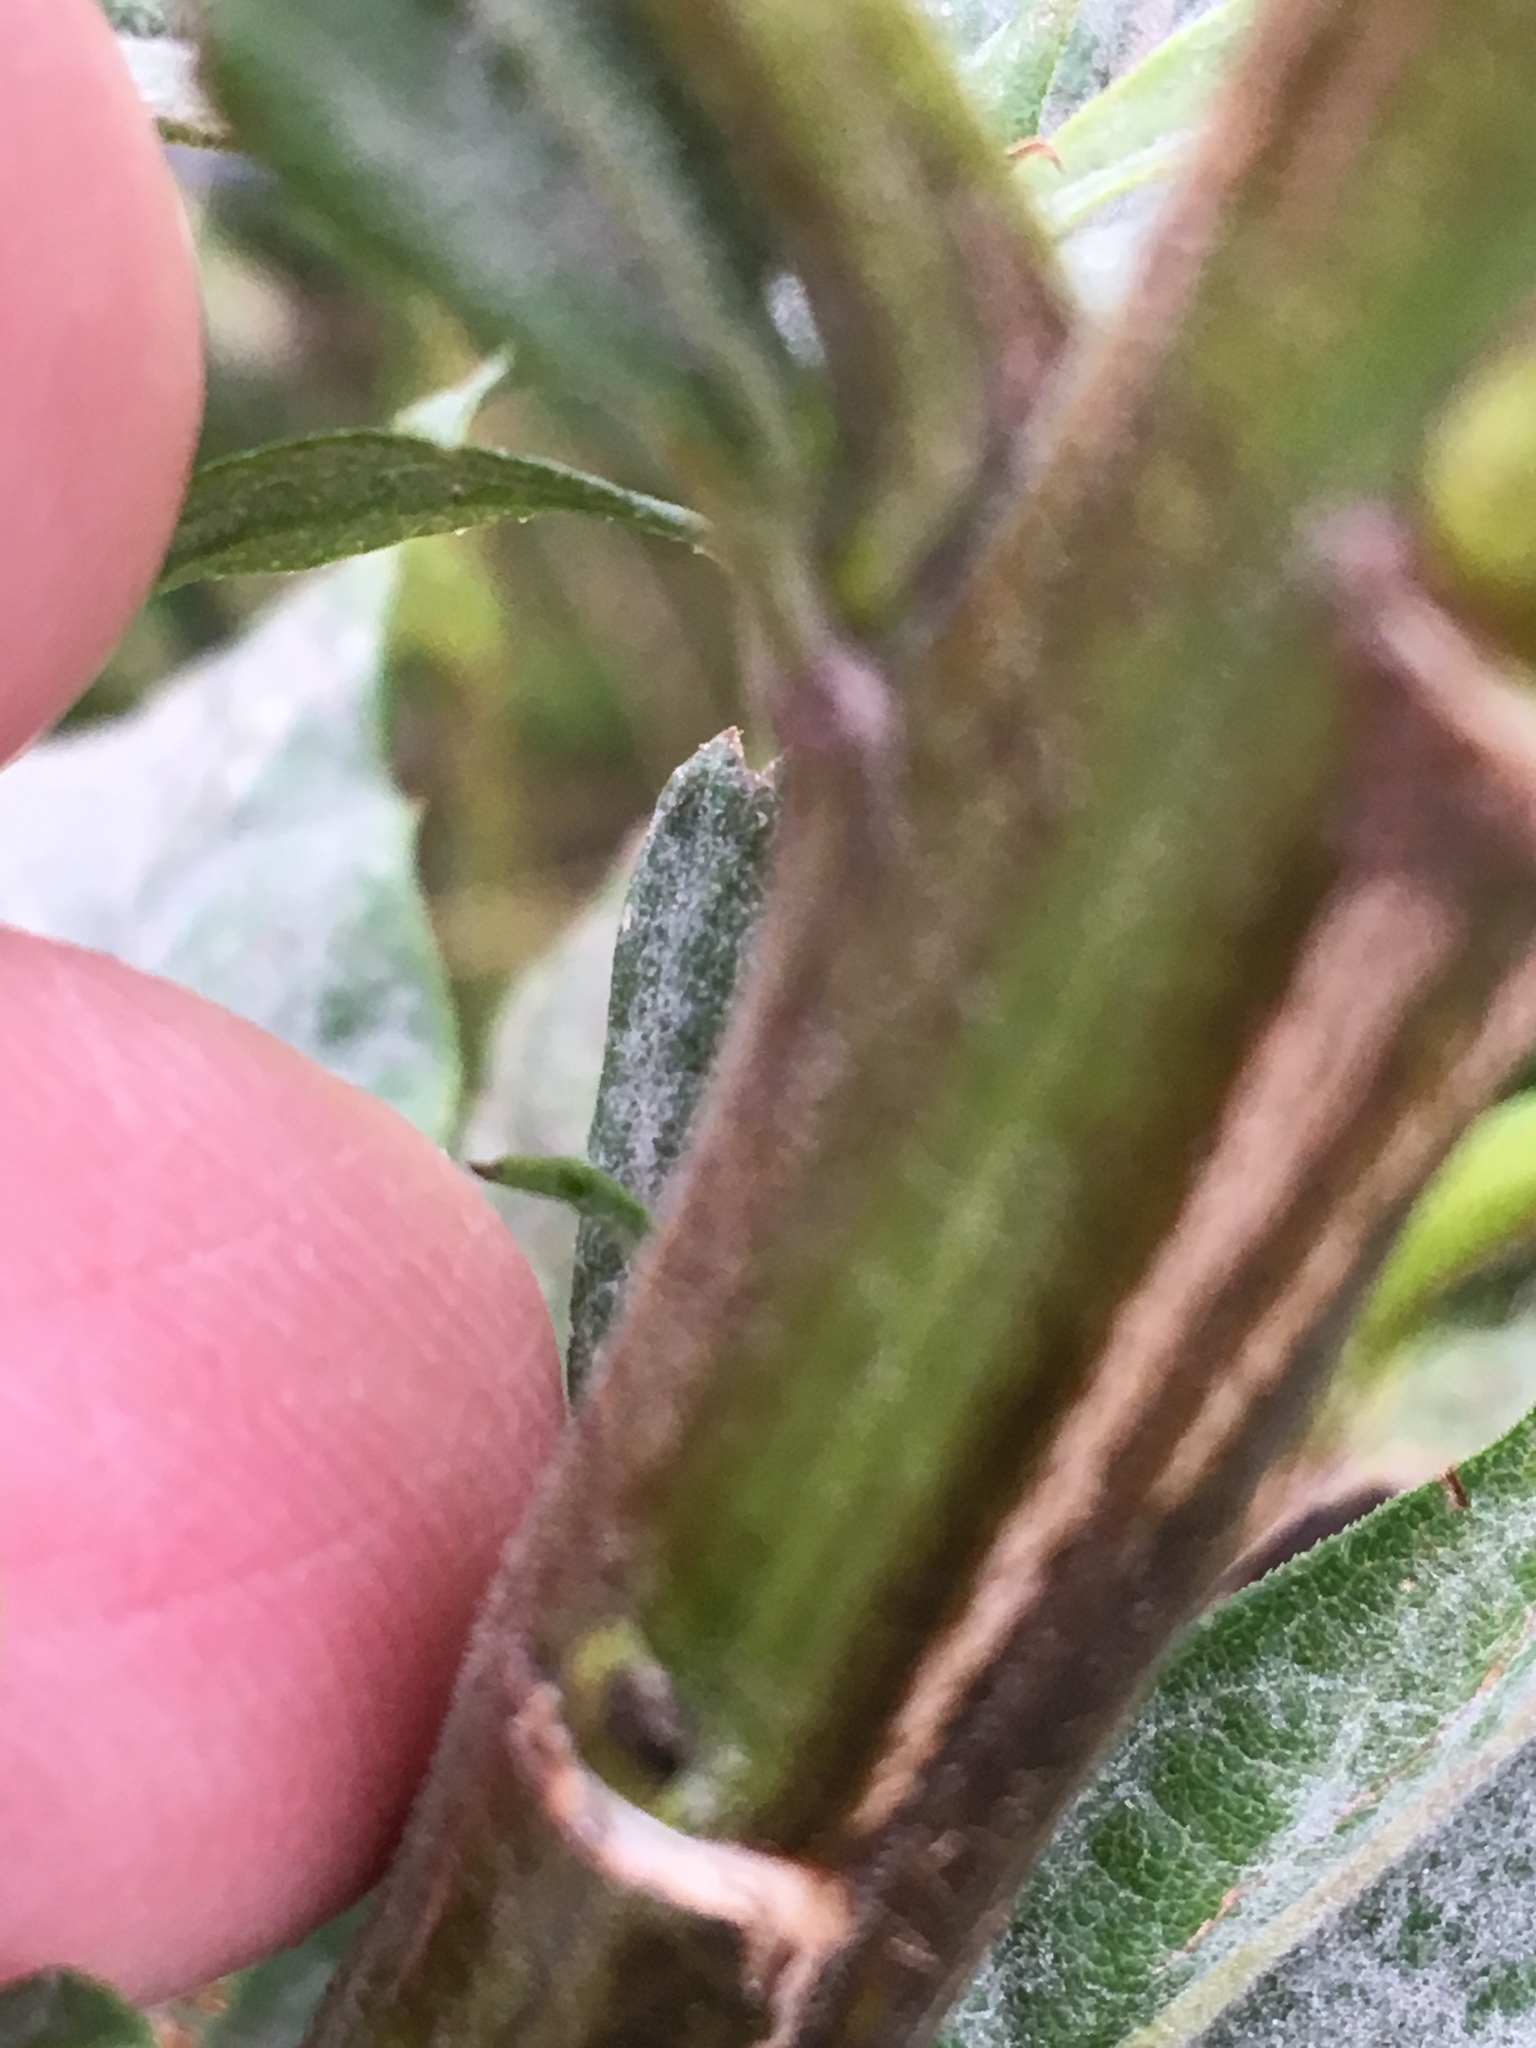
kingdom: Plantae
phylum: Tracheophyta
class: Magnoliopsida
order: Asterales
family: Asteraceae
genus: Solidago
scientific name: Solidago altissima
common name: Late goldenrod
